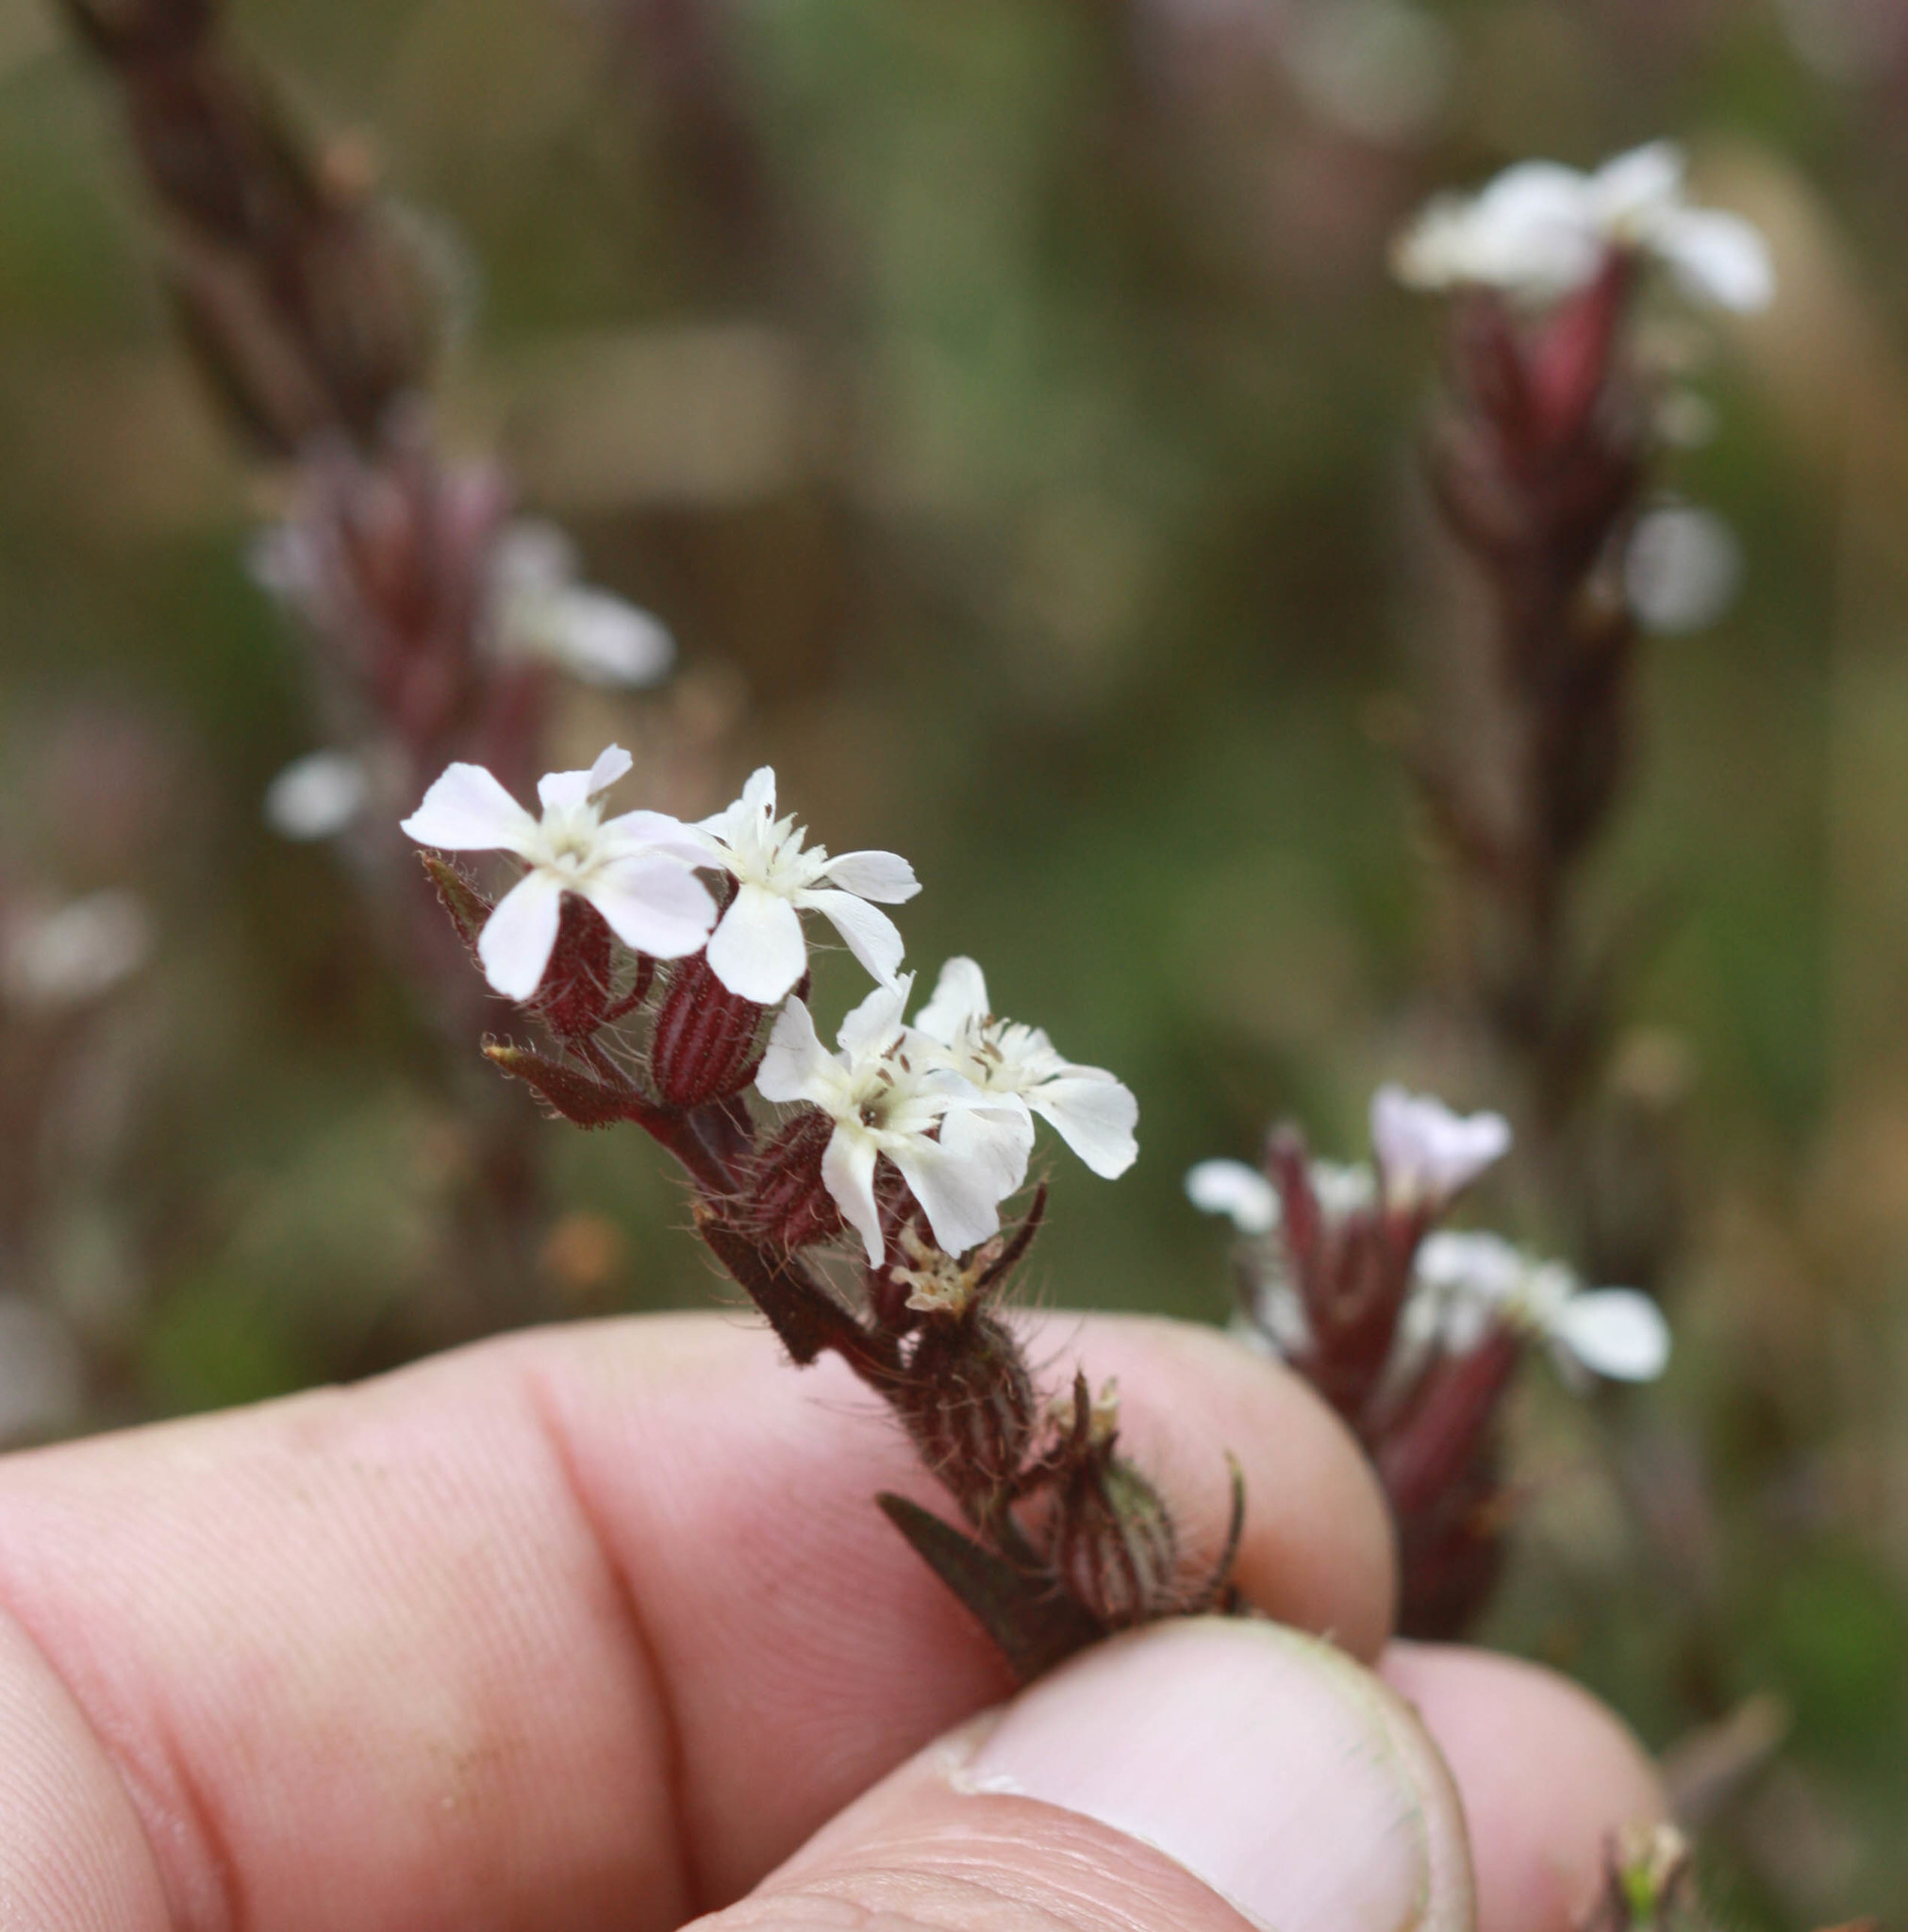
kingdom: Plantae
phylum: Tracheophyta
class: Magnoliopsida
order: Caryophyllales
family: Caryophyllaceae
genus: Silene
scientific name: Silene gallica
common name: Small-flowered catchfly
